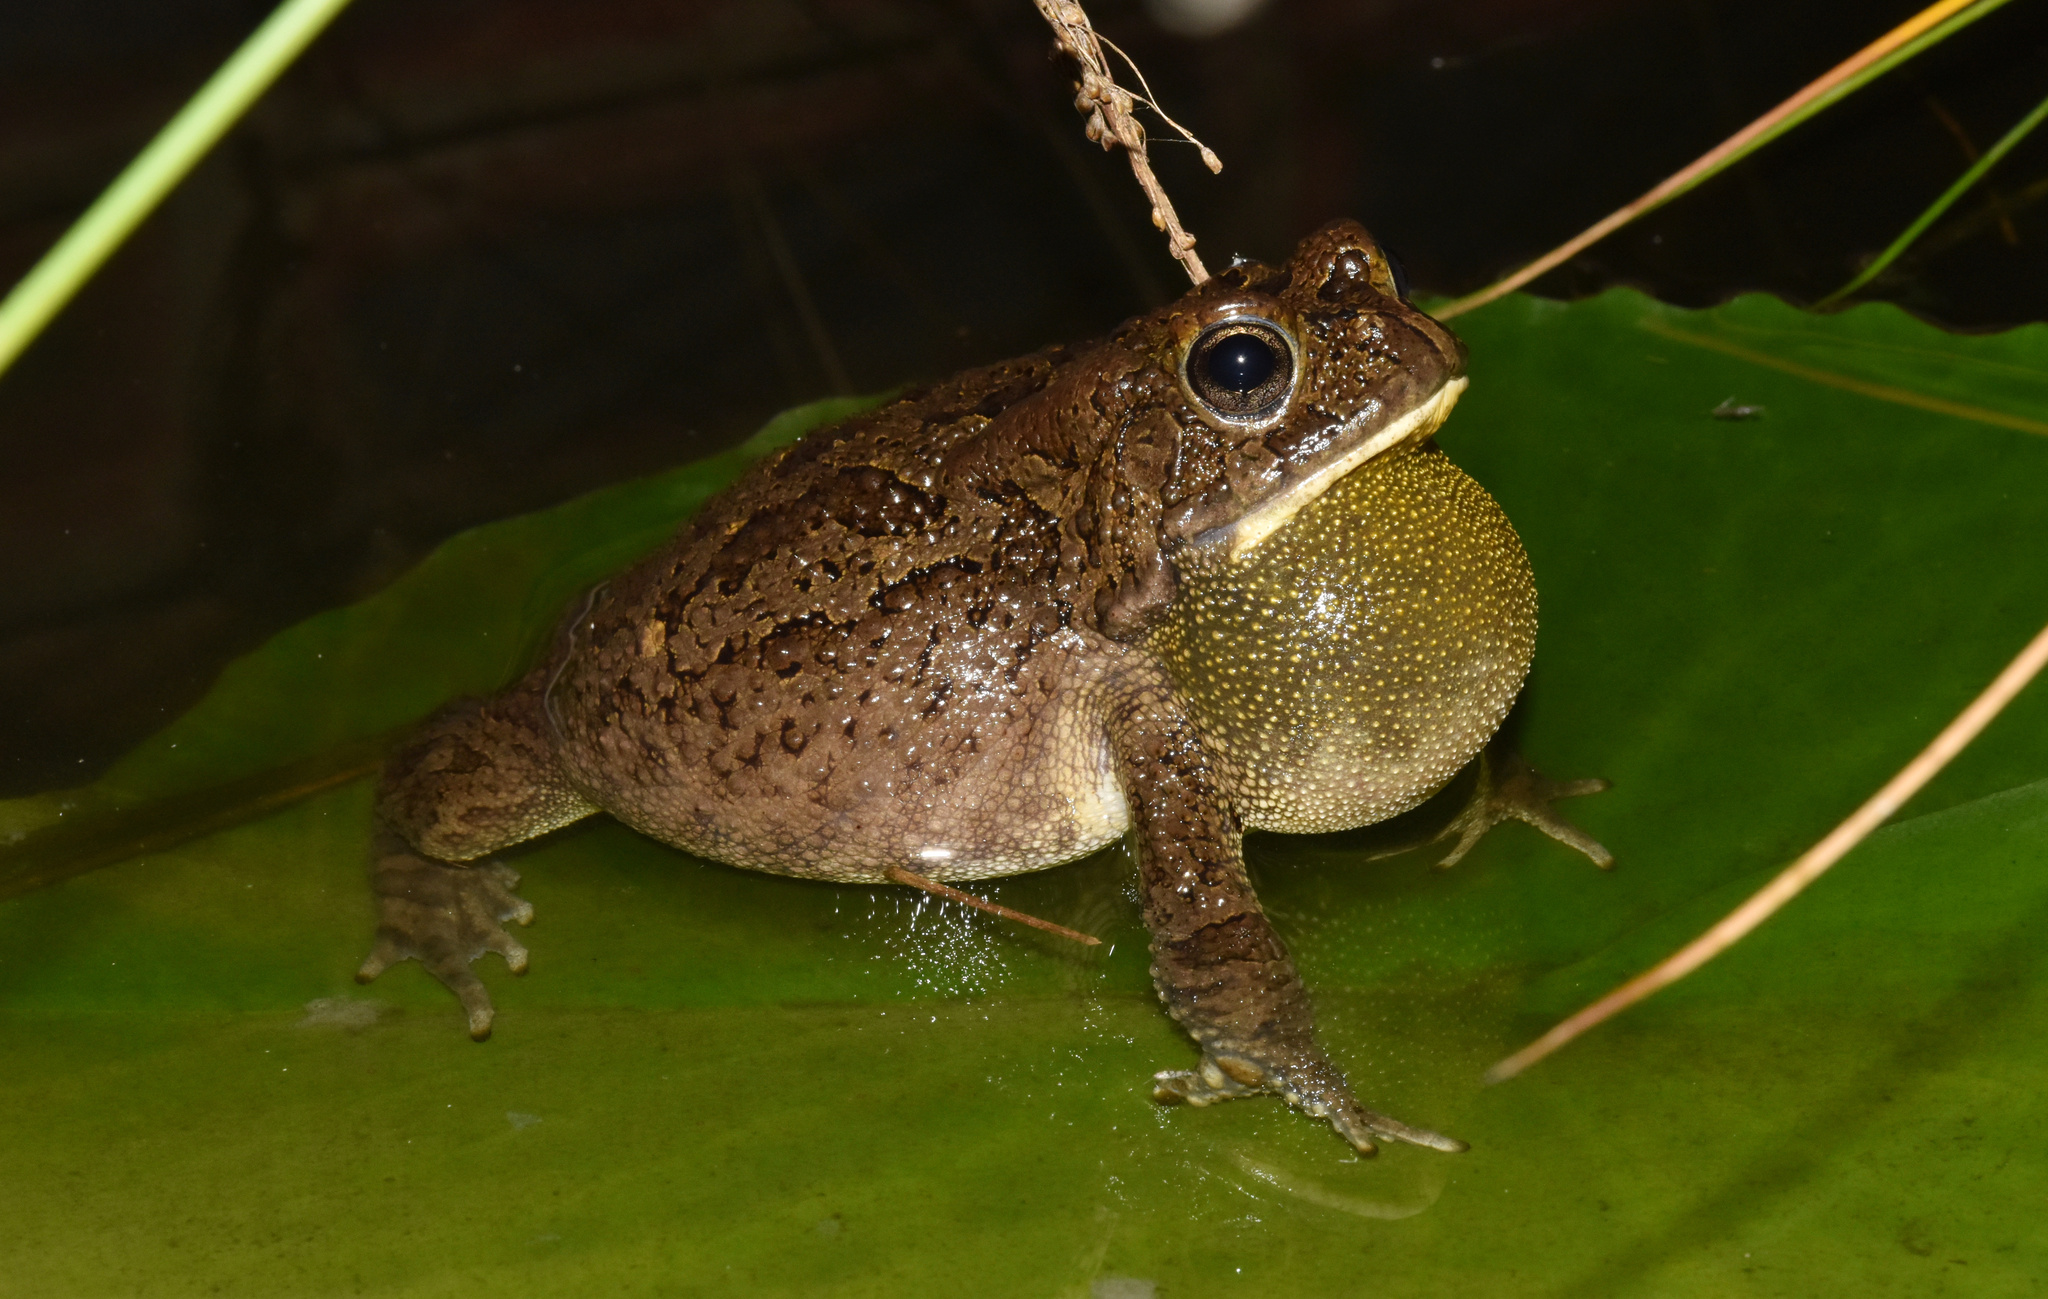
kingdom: Animalia
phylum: Chordata
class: Amphibia
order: Anura
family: Bufonidae
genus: Sclerophrys
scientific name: Sclerophrys gutturalis
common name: African common toad
